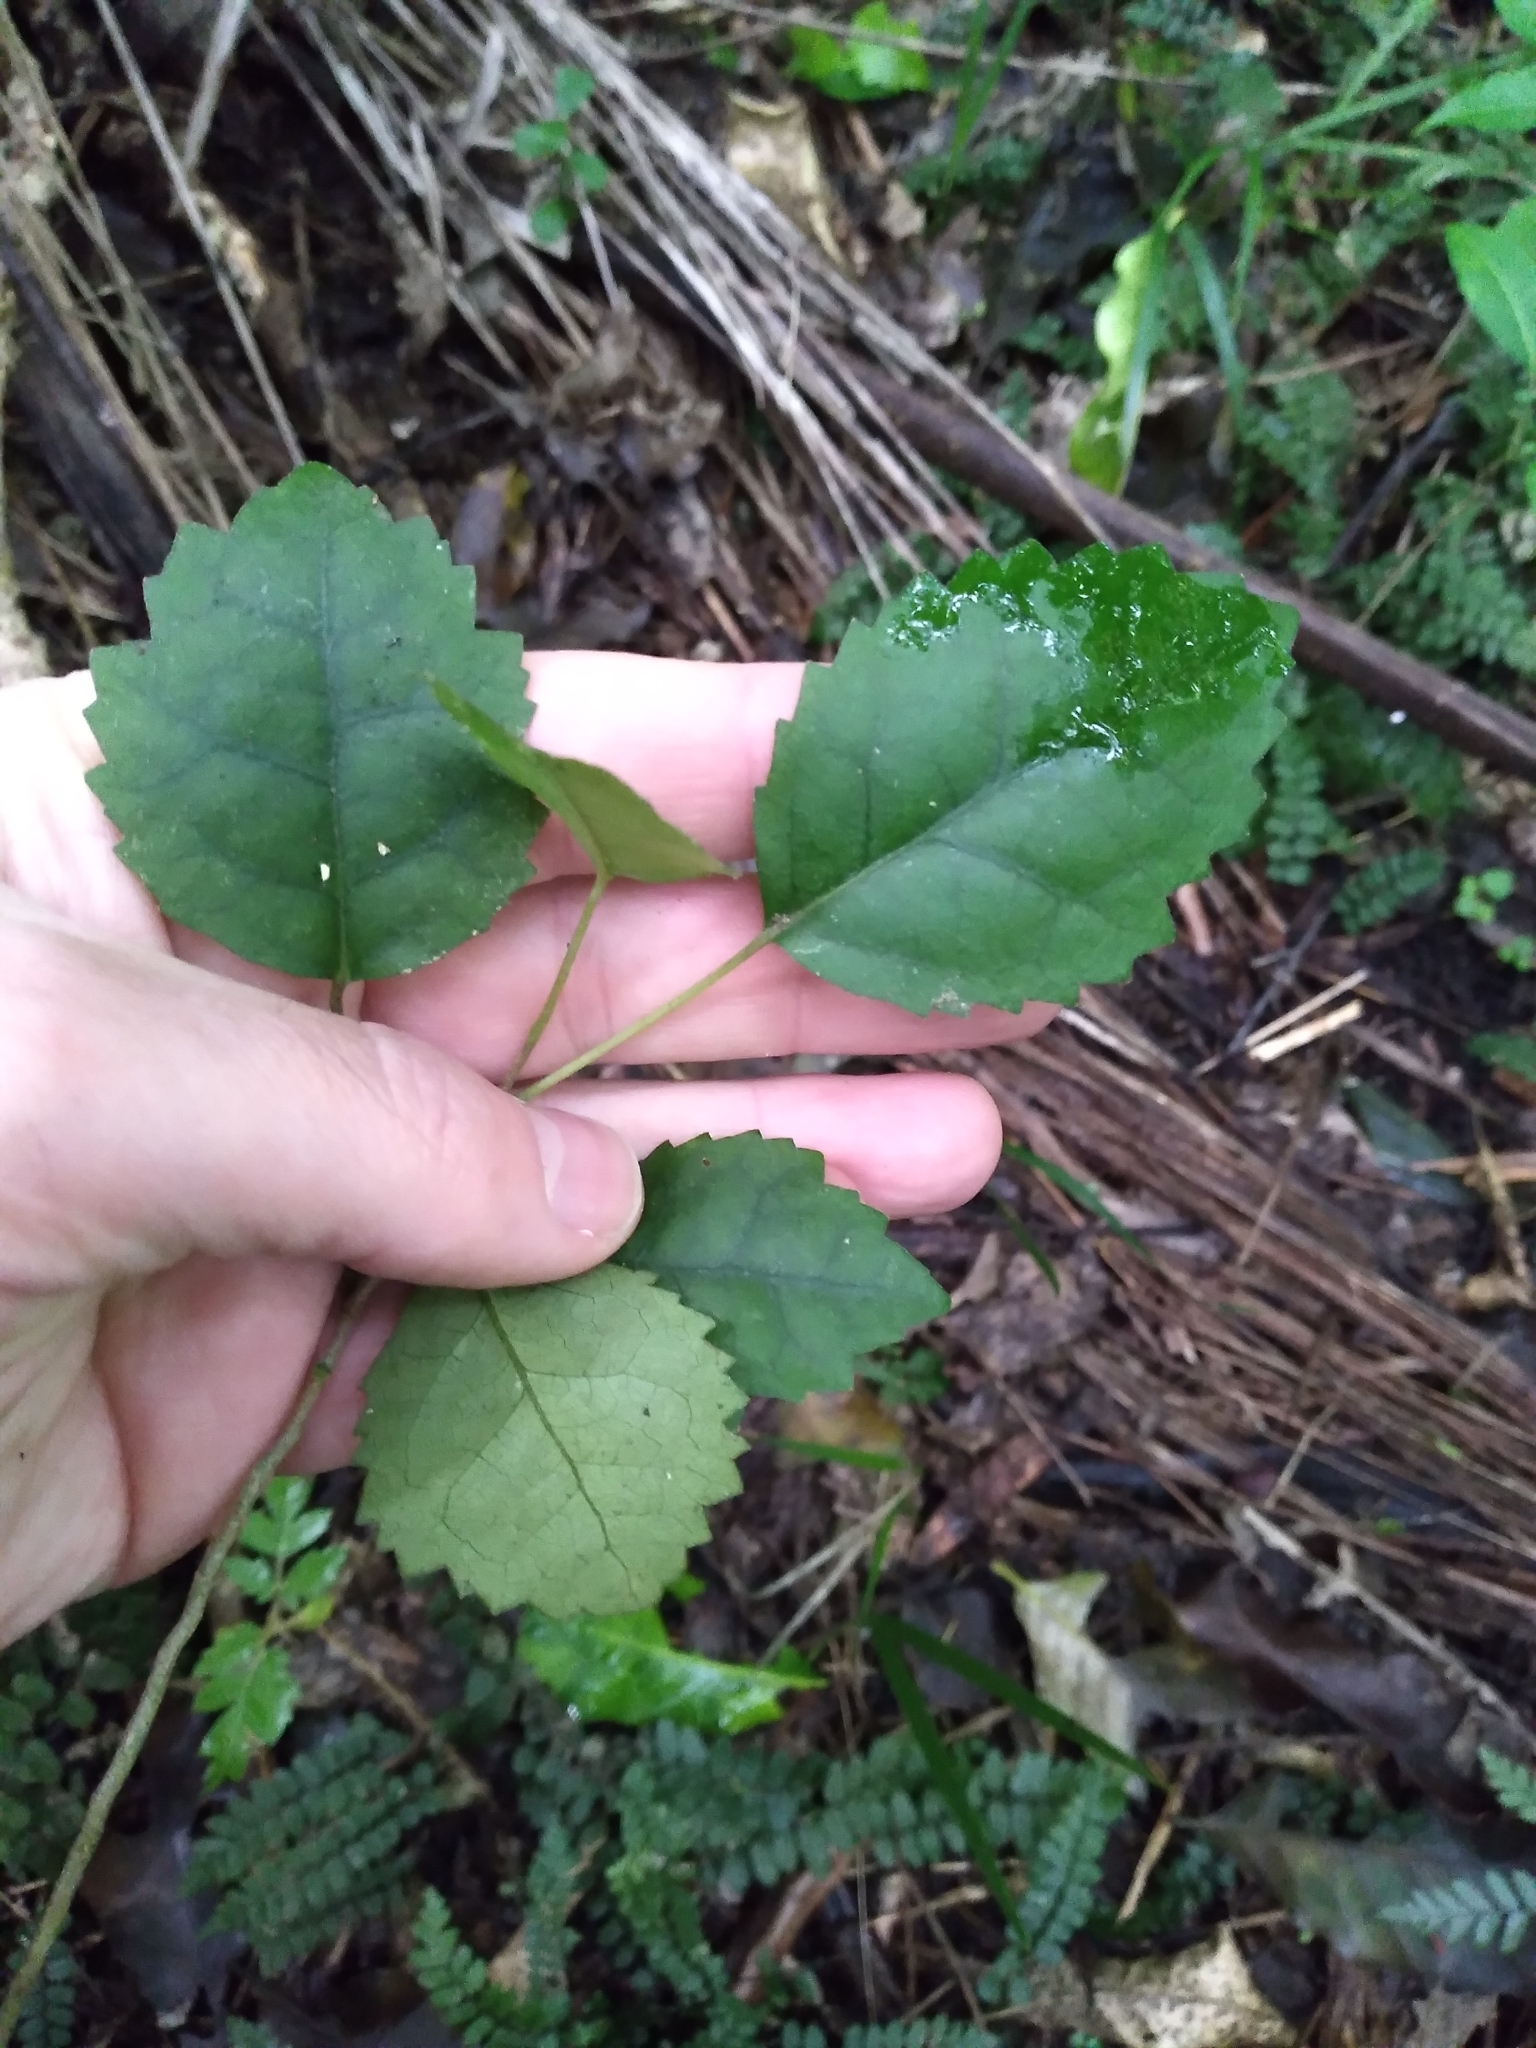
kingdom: Plantae
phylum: Tracheophyta
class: Magnoliopsida
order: Malvales
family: Malvaceae
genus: Hoheria
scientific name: Hoheria populnea
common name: Lacebark
